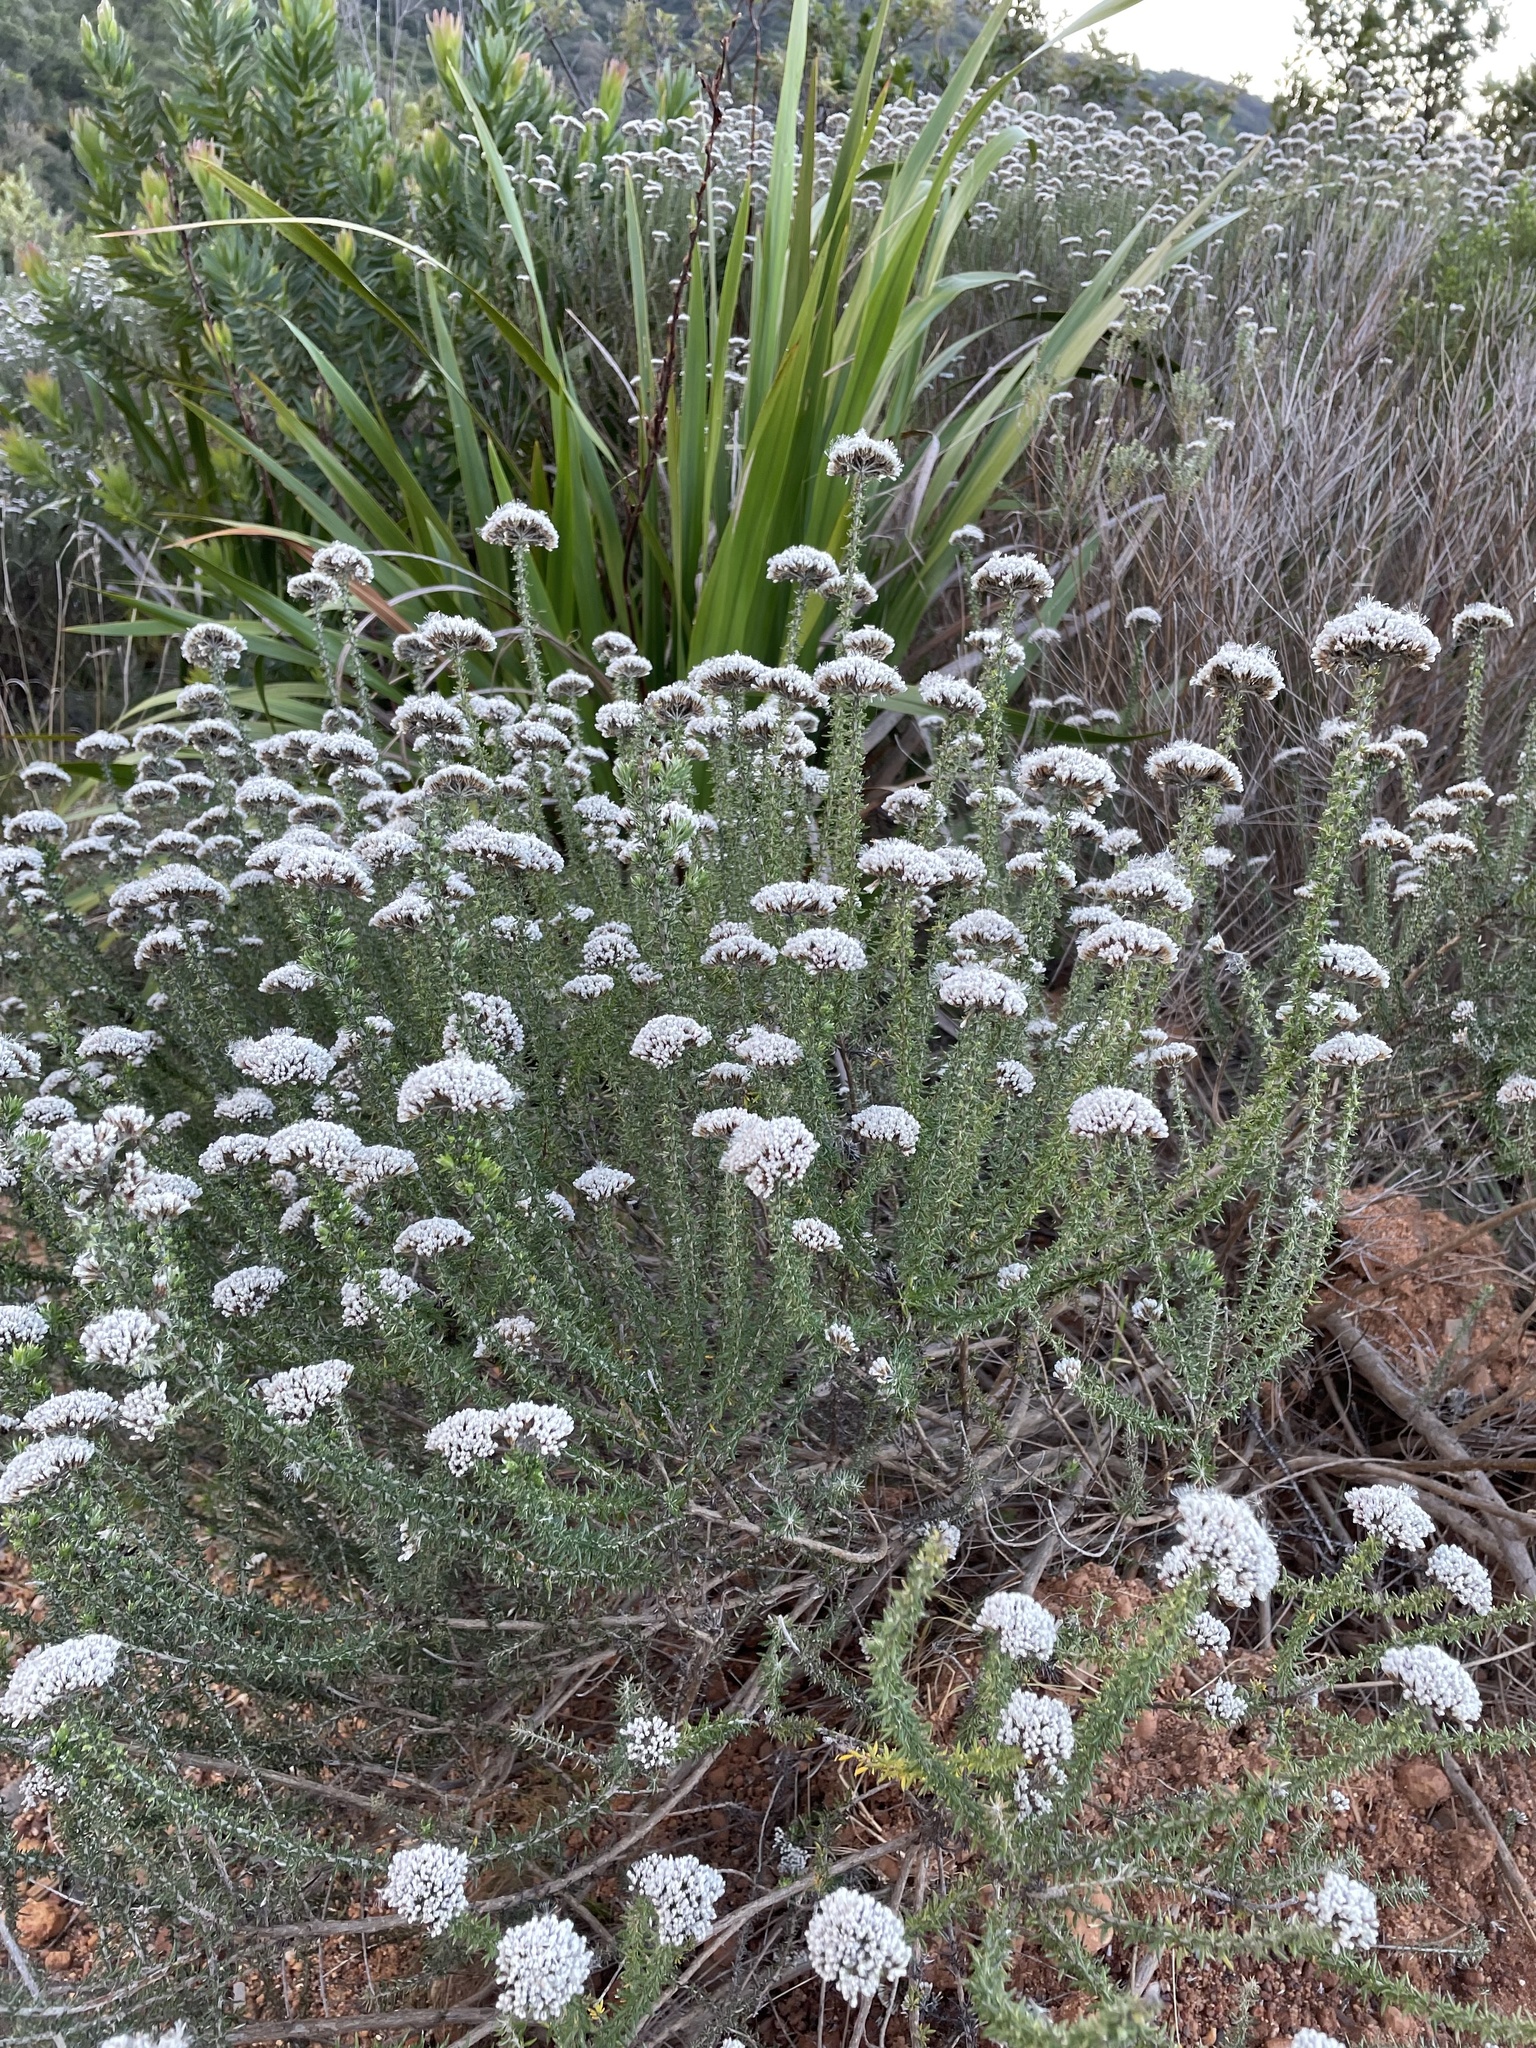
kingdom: Plantae
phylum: Tracheophyta
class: Magnoliopsida
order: Asterales
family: Asteraceae
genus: Metalasia
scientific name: Metalasia densa
